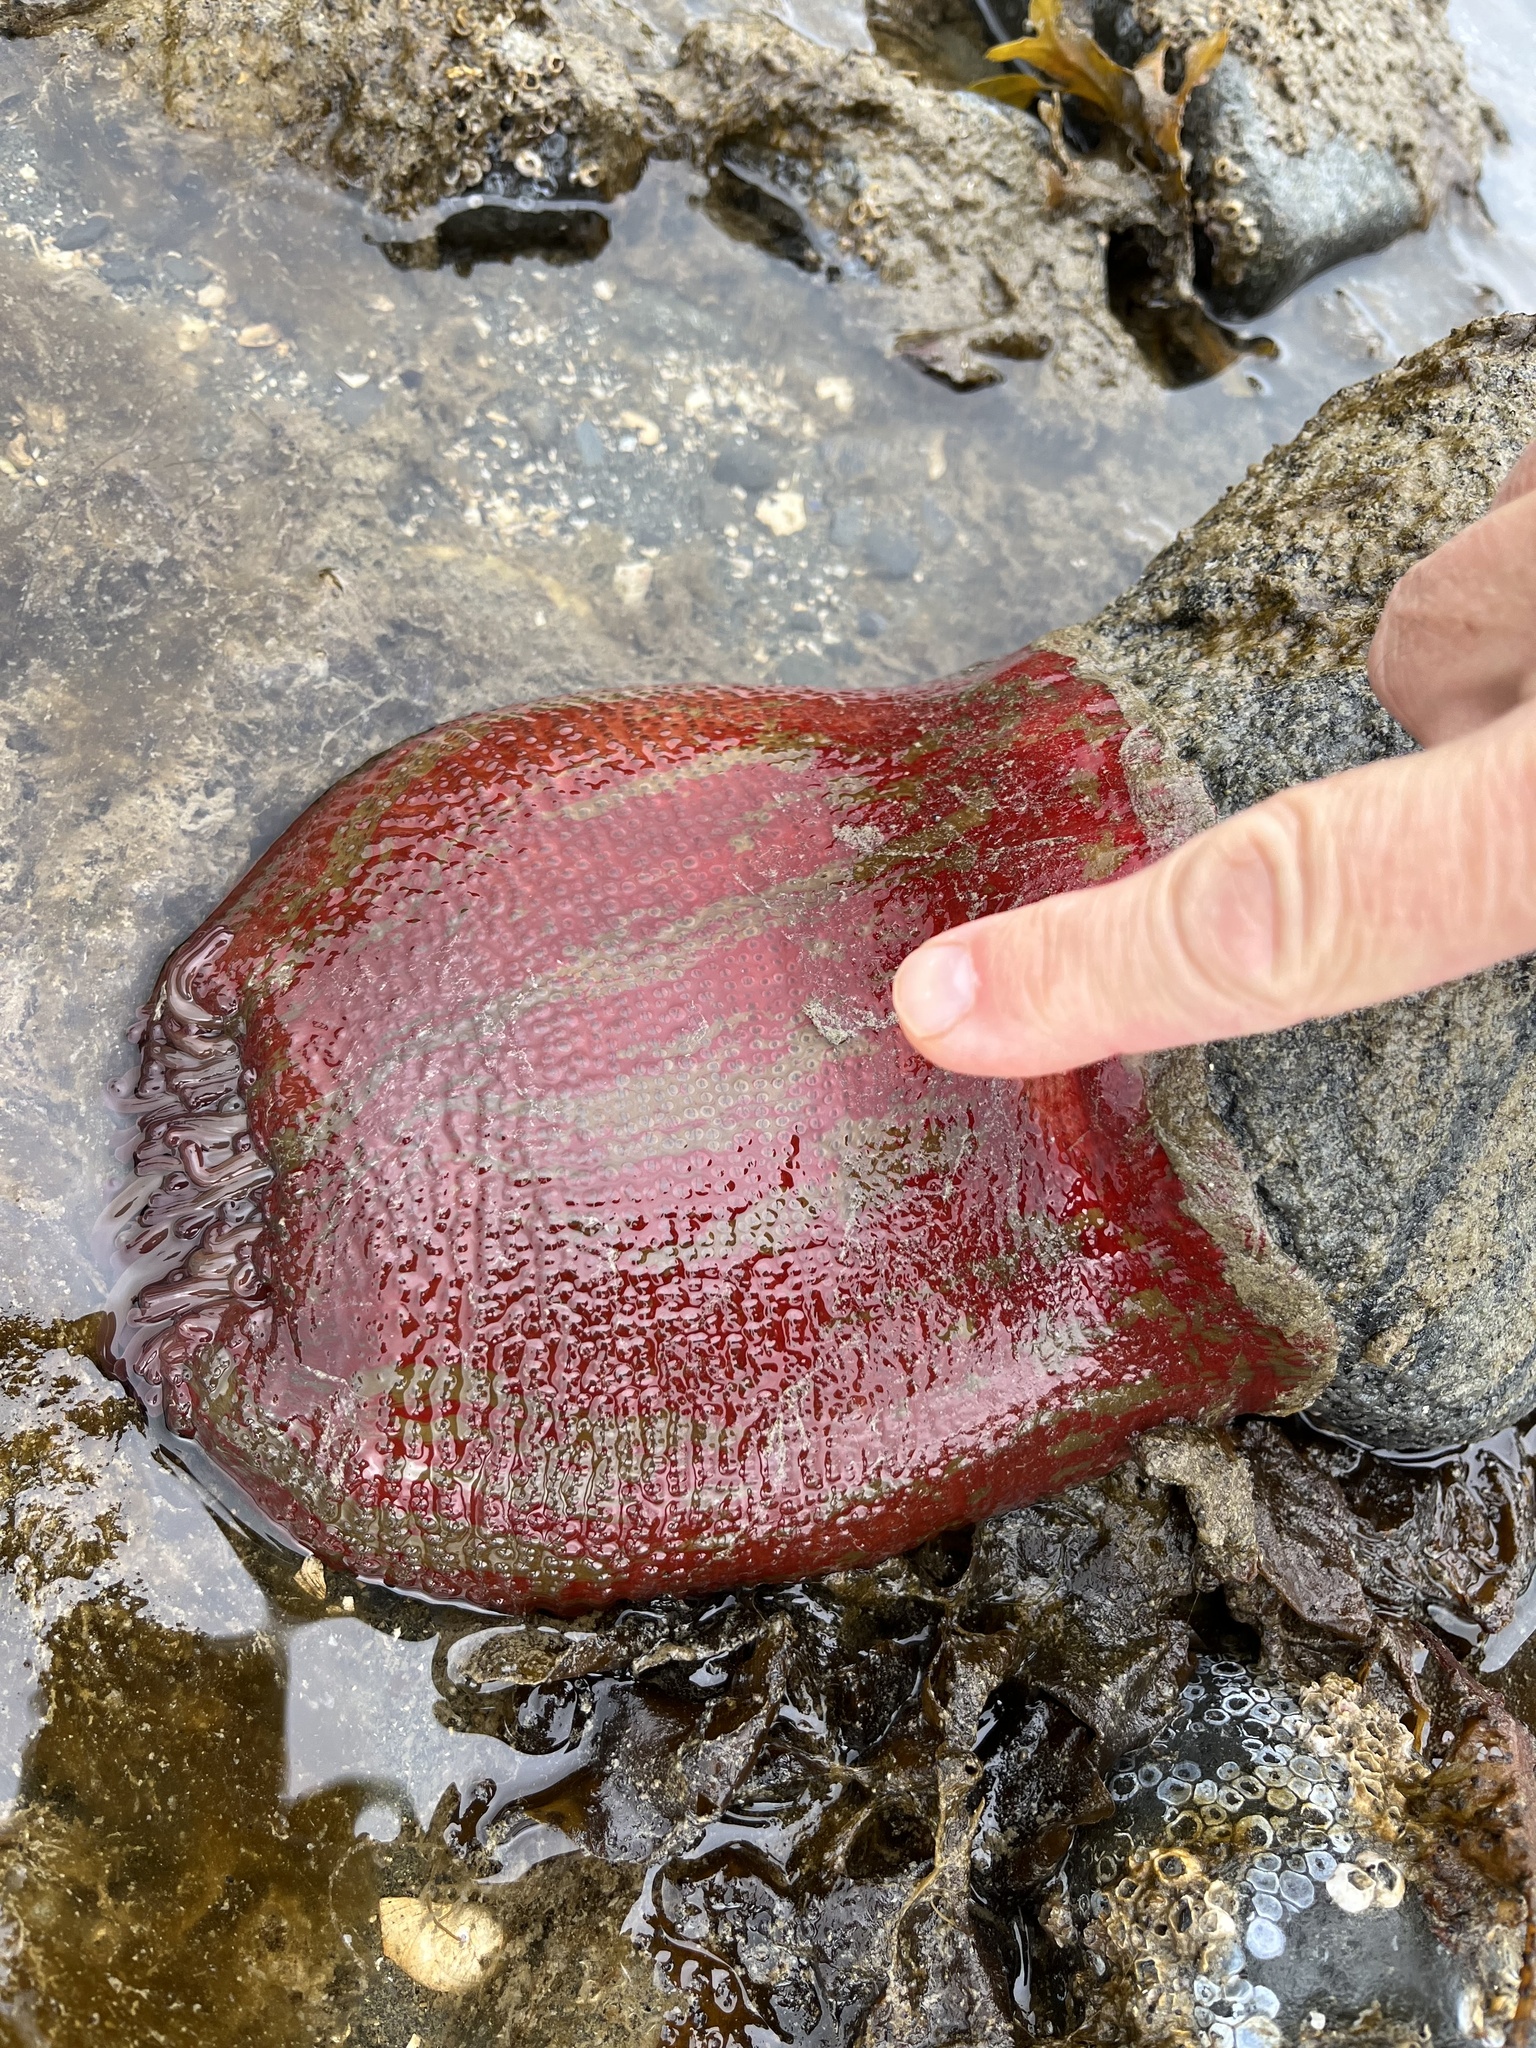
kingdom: Animalia
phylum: Cnidaria
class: Anthozoa
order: Actiniaria
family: Actiniidae
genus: Urticina
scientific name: Urticina grebelnyi
